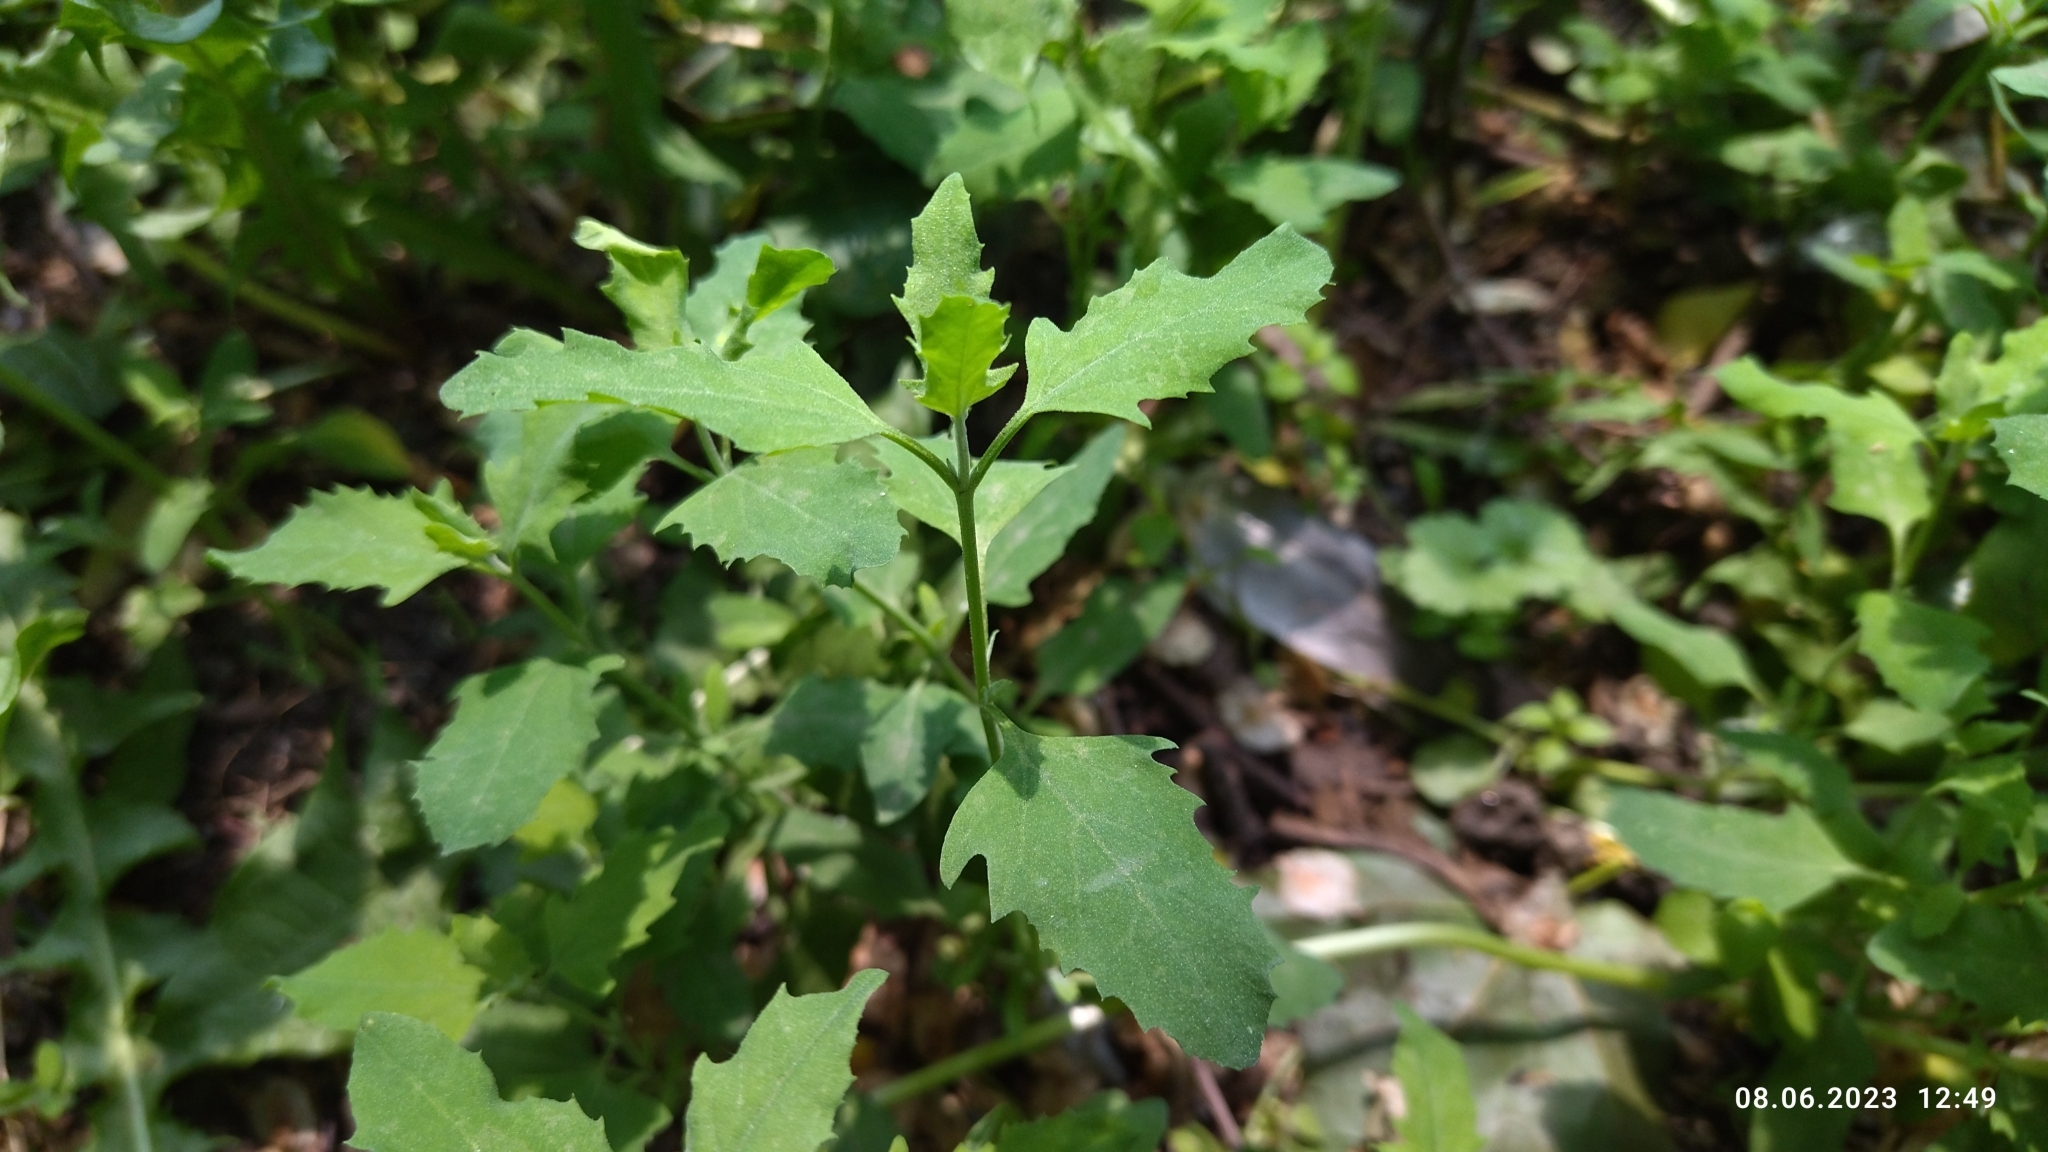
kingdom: Plantae
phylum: Tracheophyta
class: Magnoliopsida
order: Caryophyllales
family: Amaranthaceae
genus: Atriplex
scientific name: Atriplex patula
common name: Common orache
